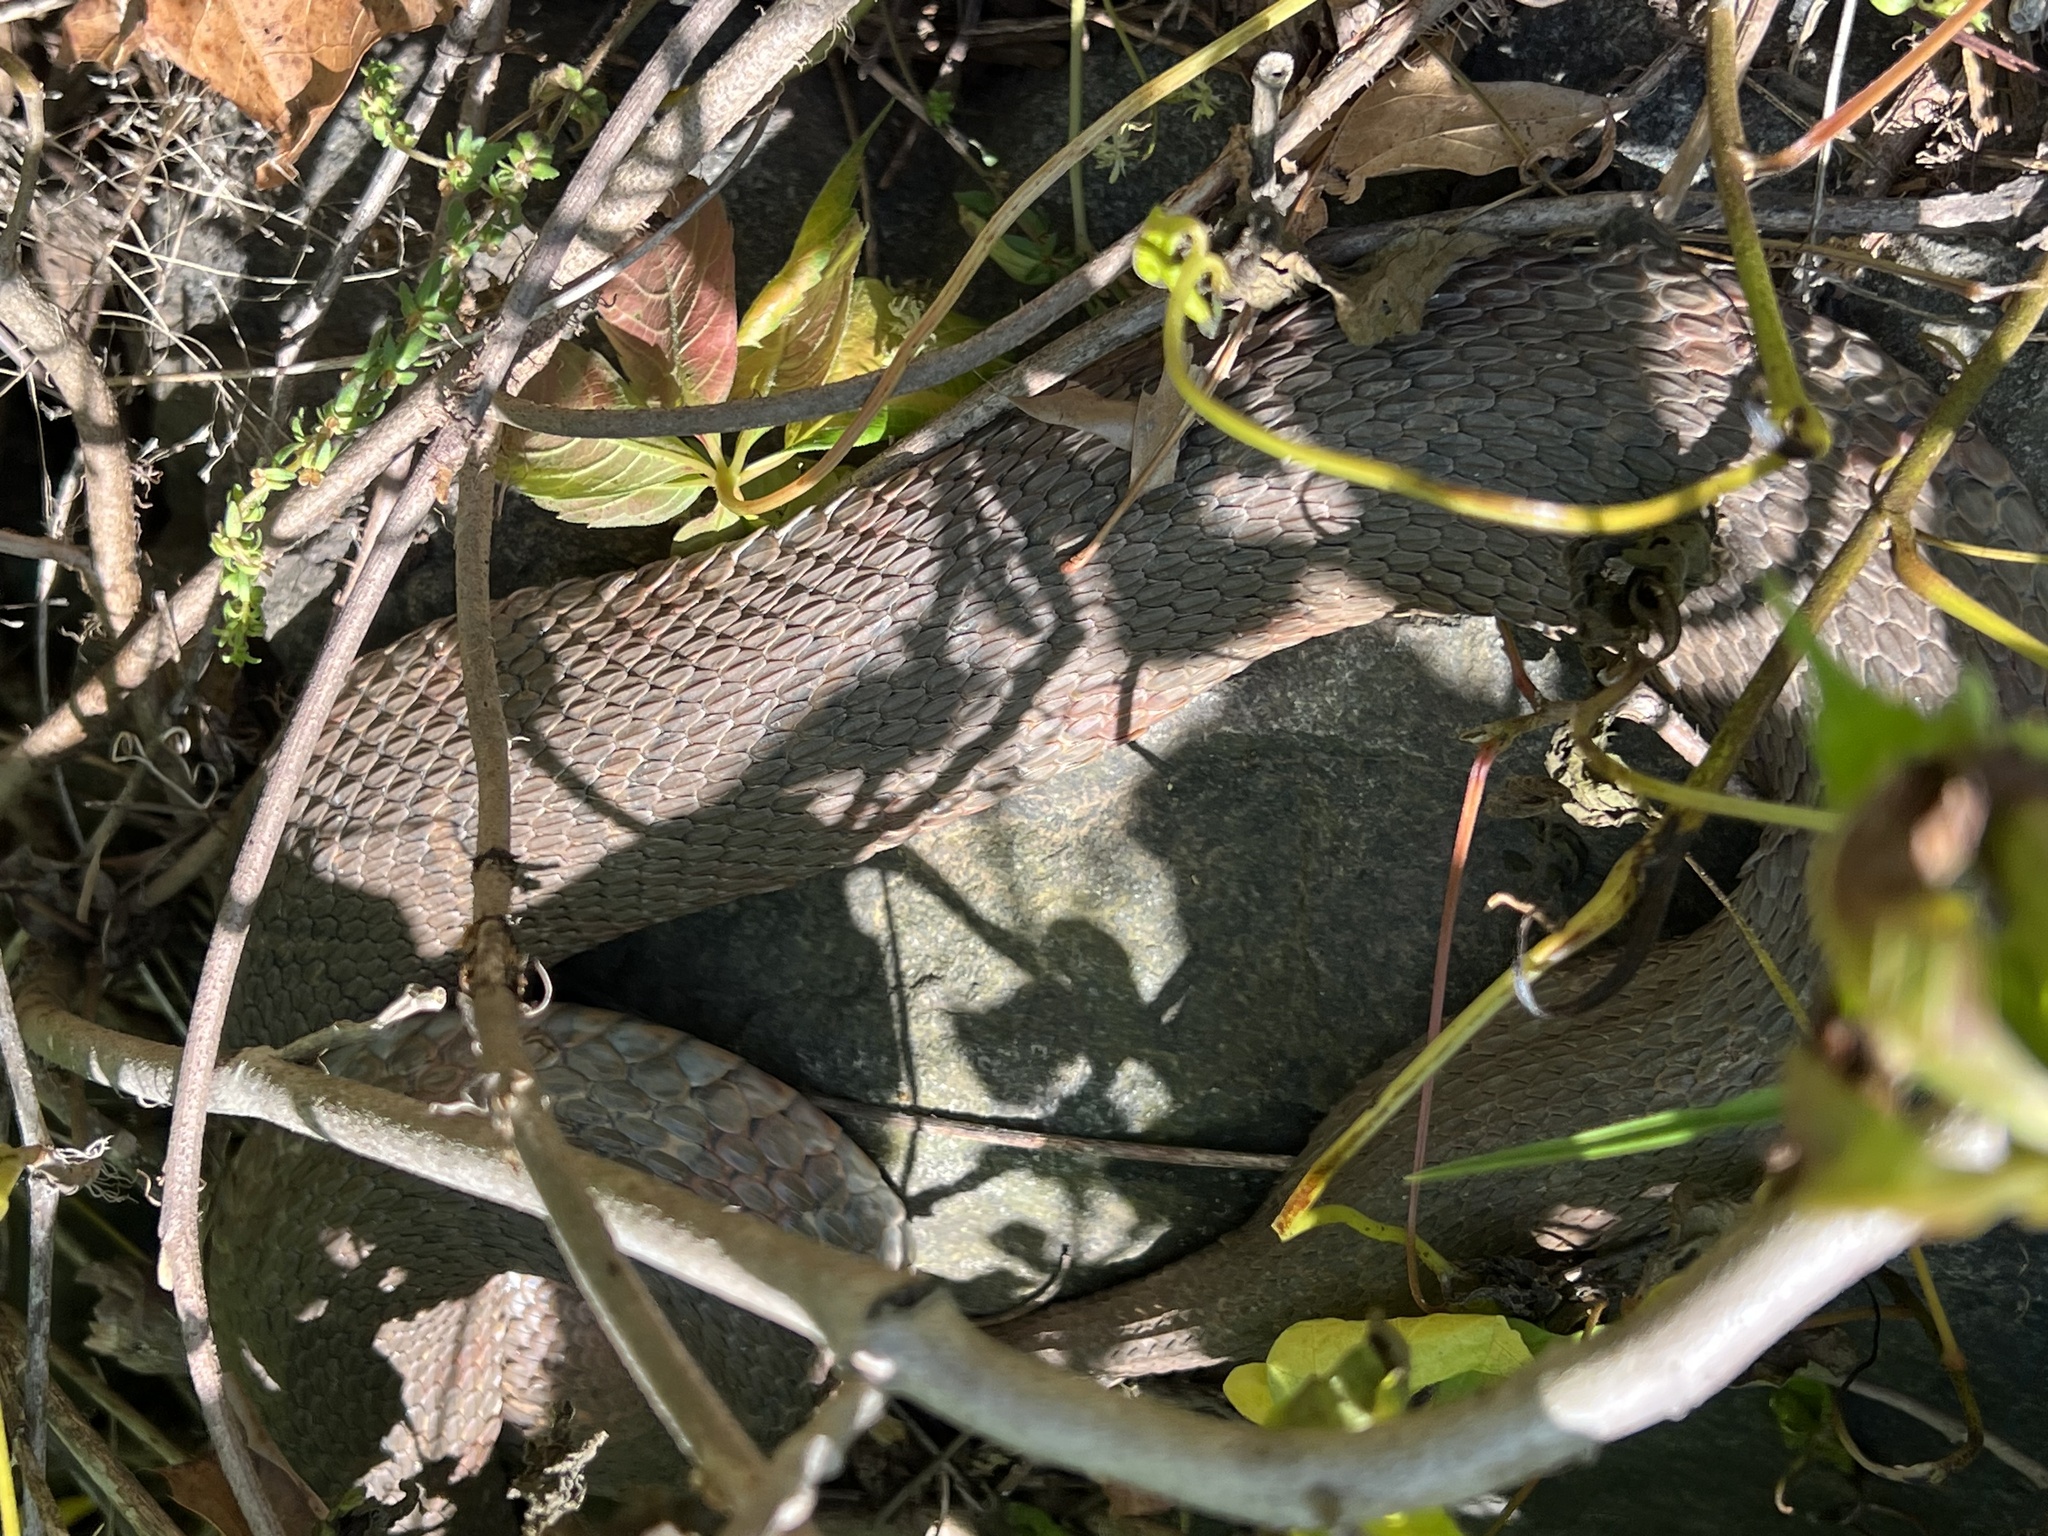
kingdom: Animalia
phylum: Chordata
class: Squamata
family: Colubridae
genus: Nerodia
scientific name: Nerodia sipedon
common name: Northern water snake
